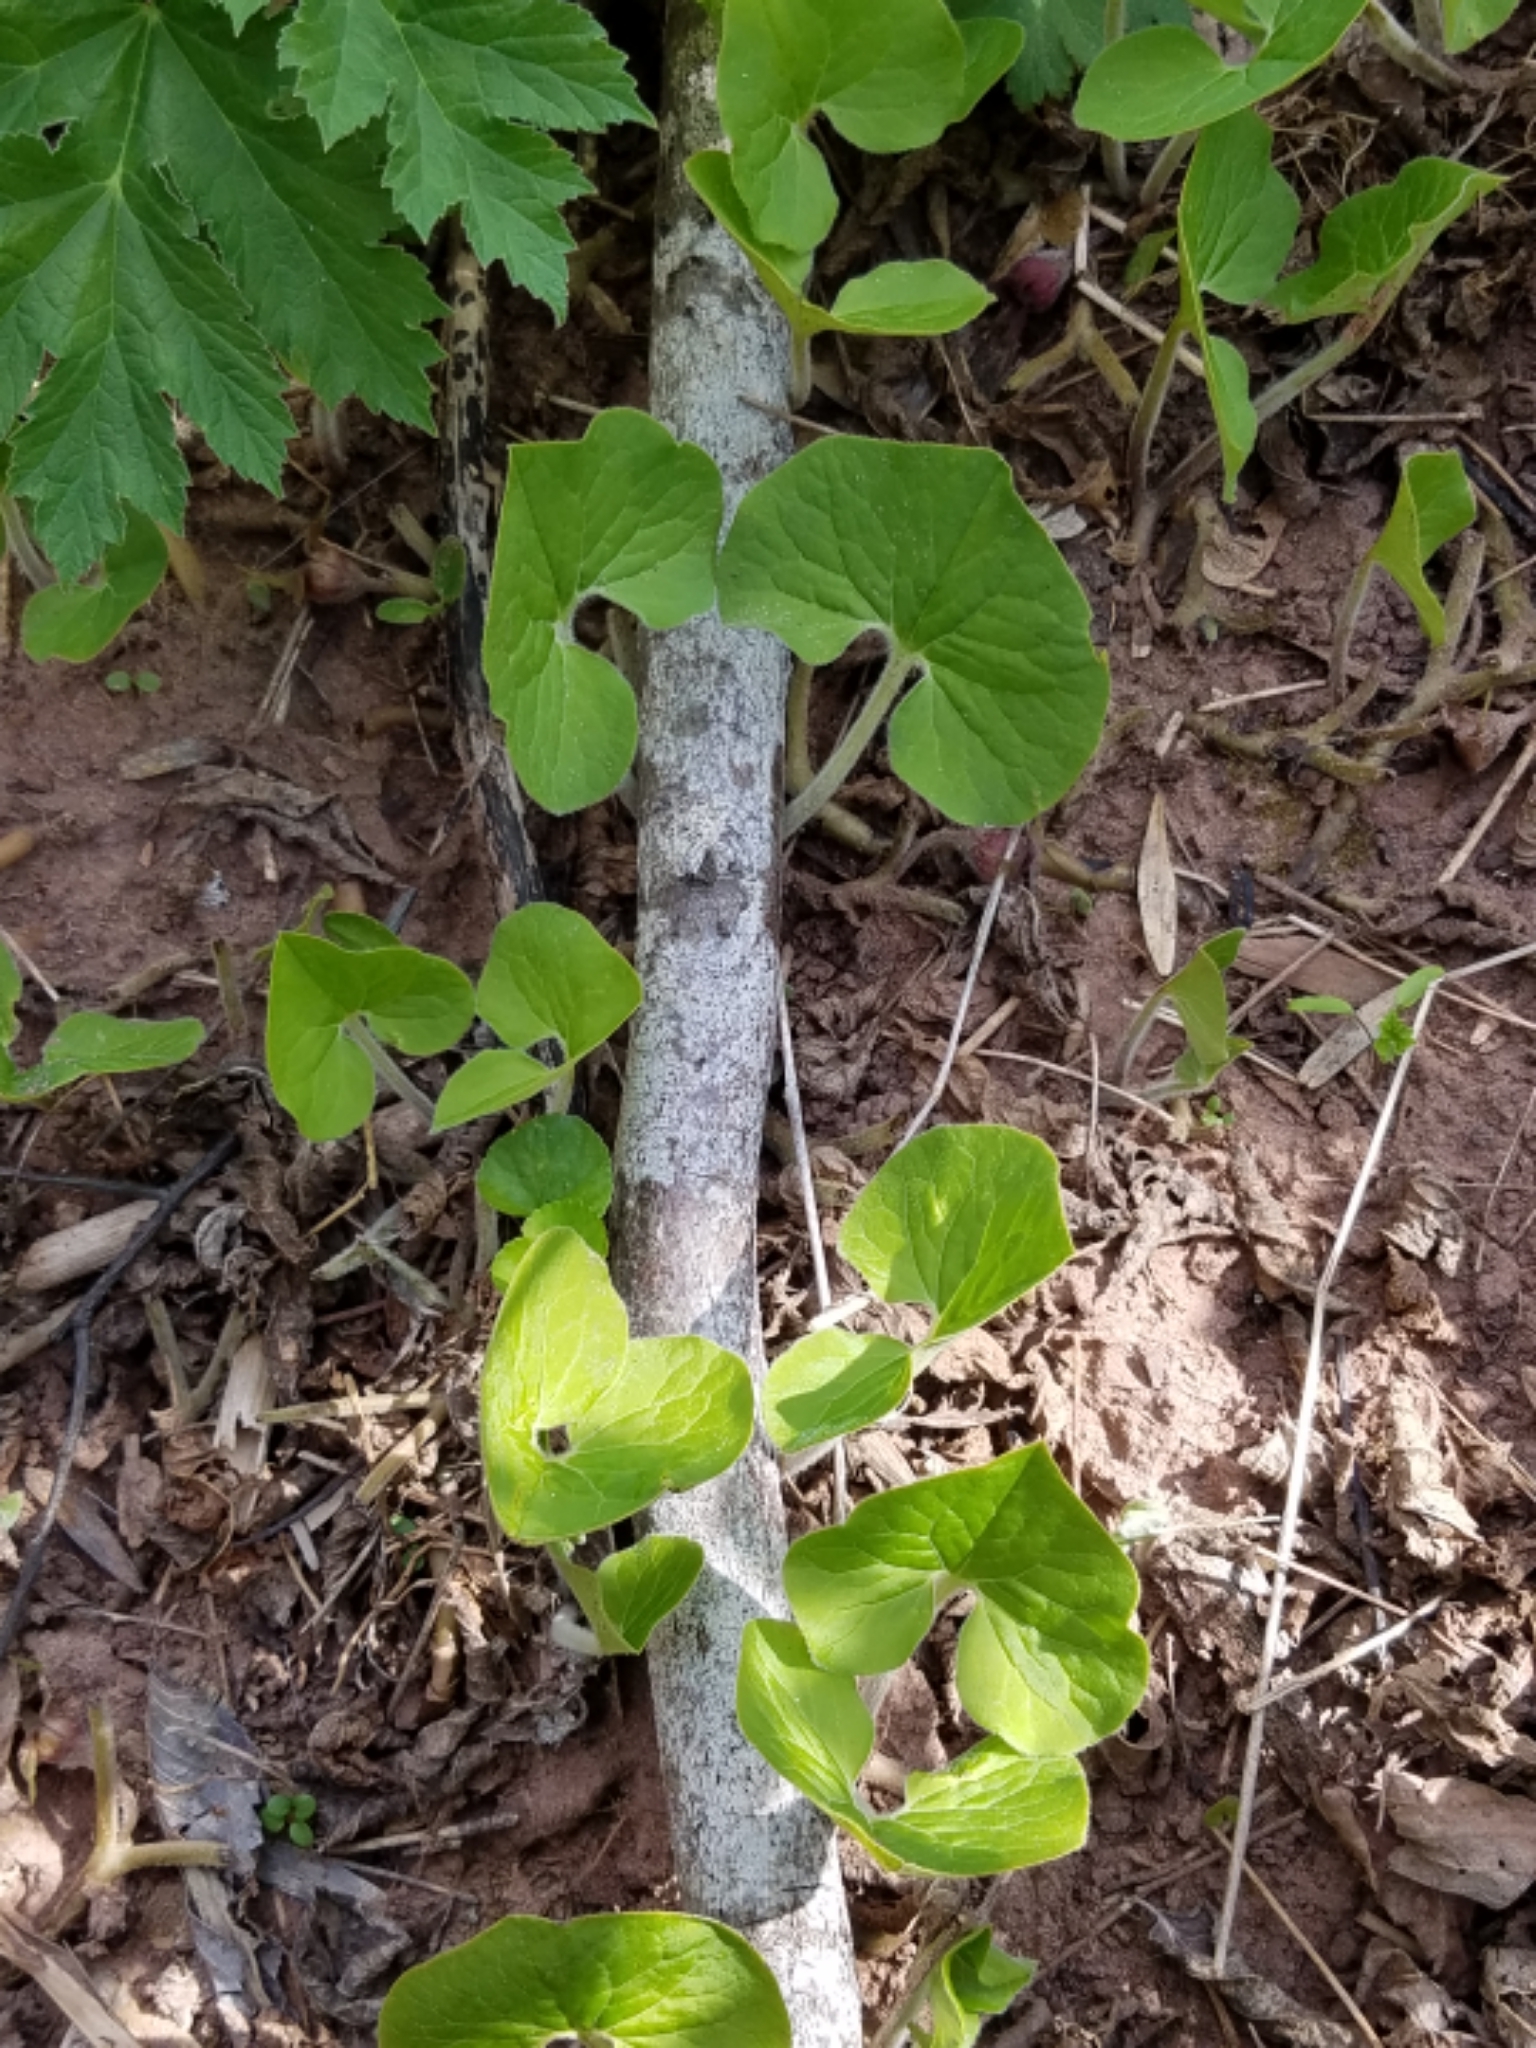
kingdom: Plantae
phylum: Tracheophyta
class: Magnoliopsida
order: Piperales
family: Aristolochiaceae
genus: Asarum
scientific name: Asarum canadense
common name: Wild ginger
